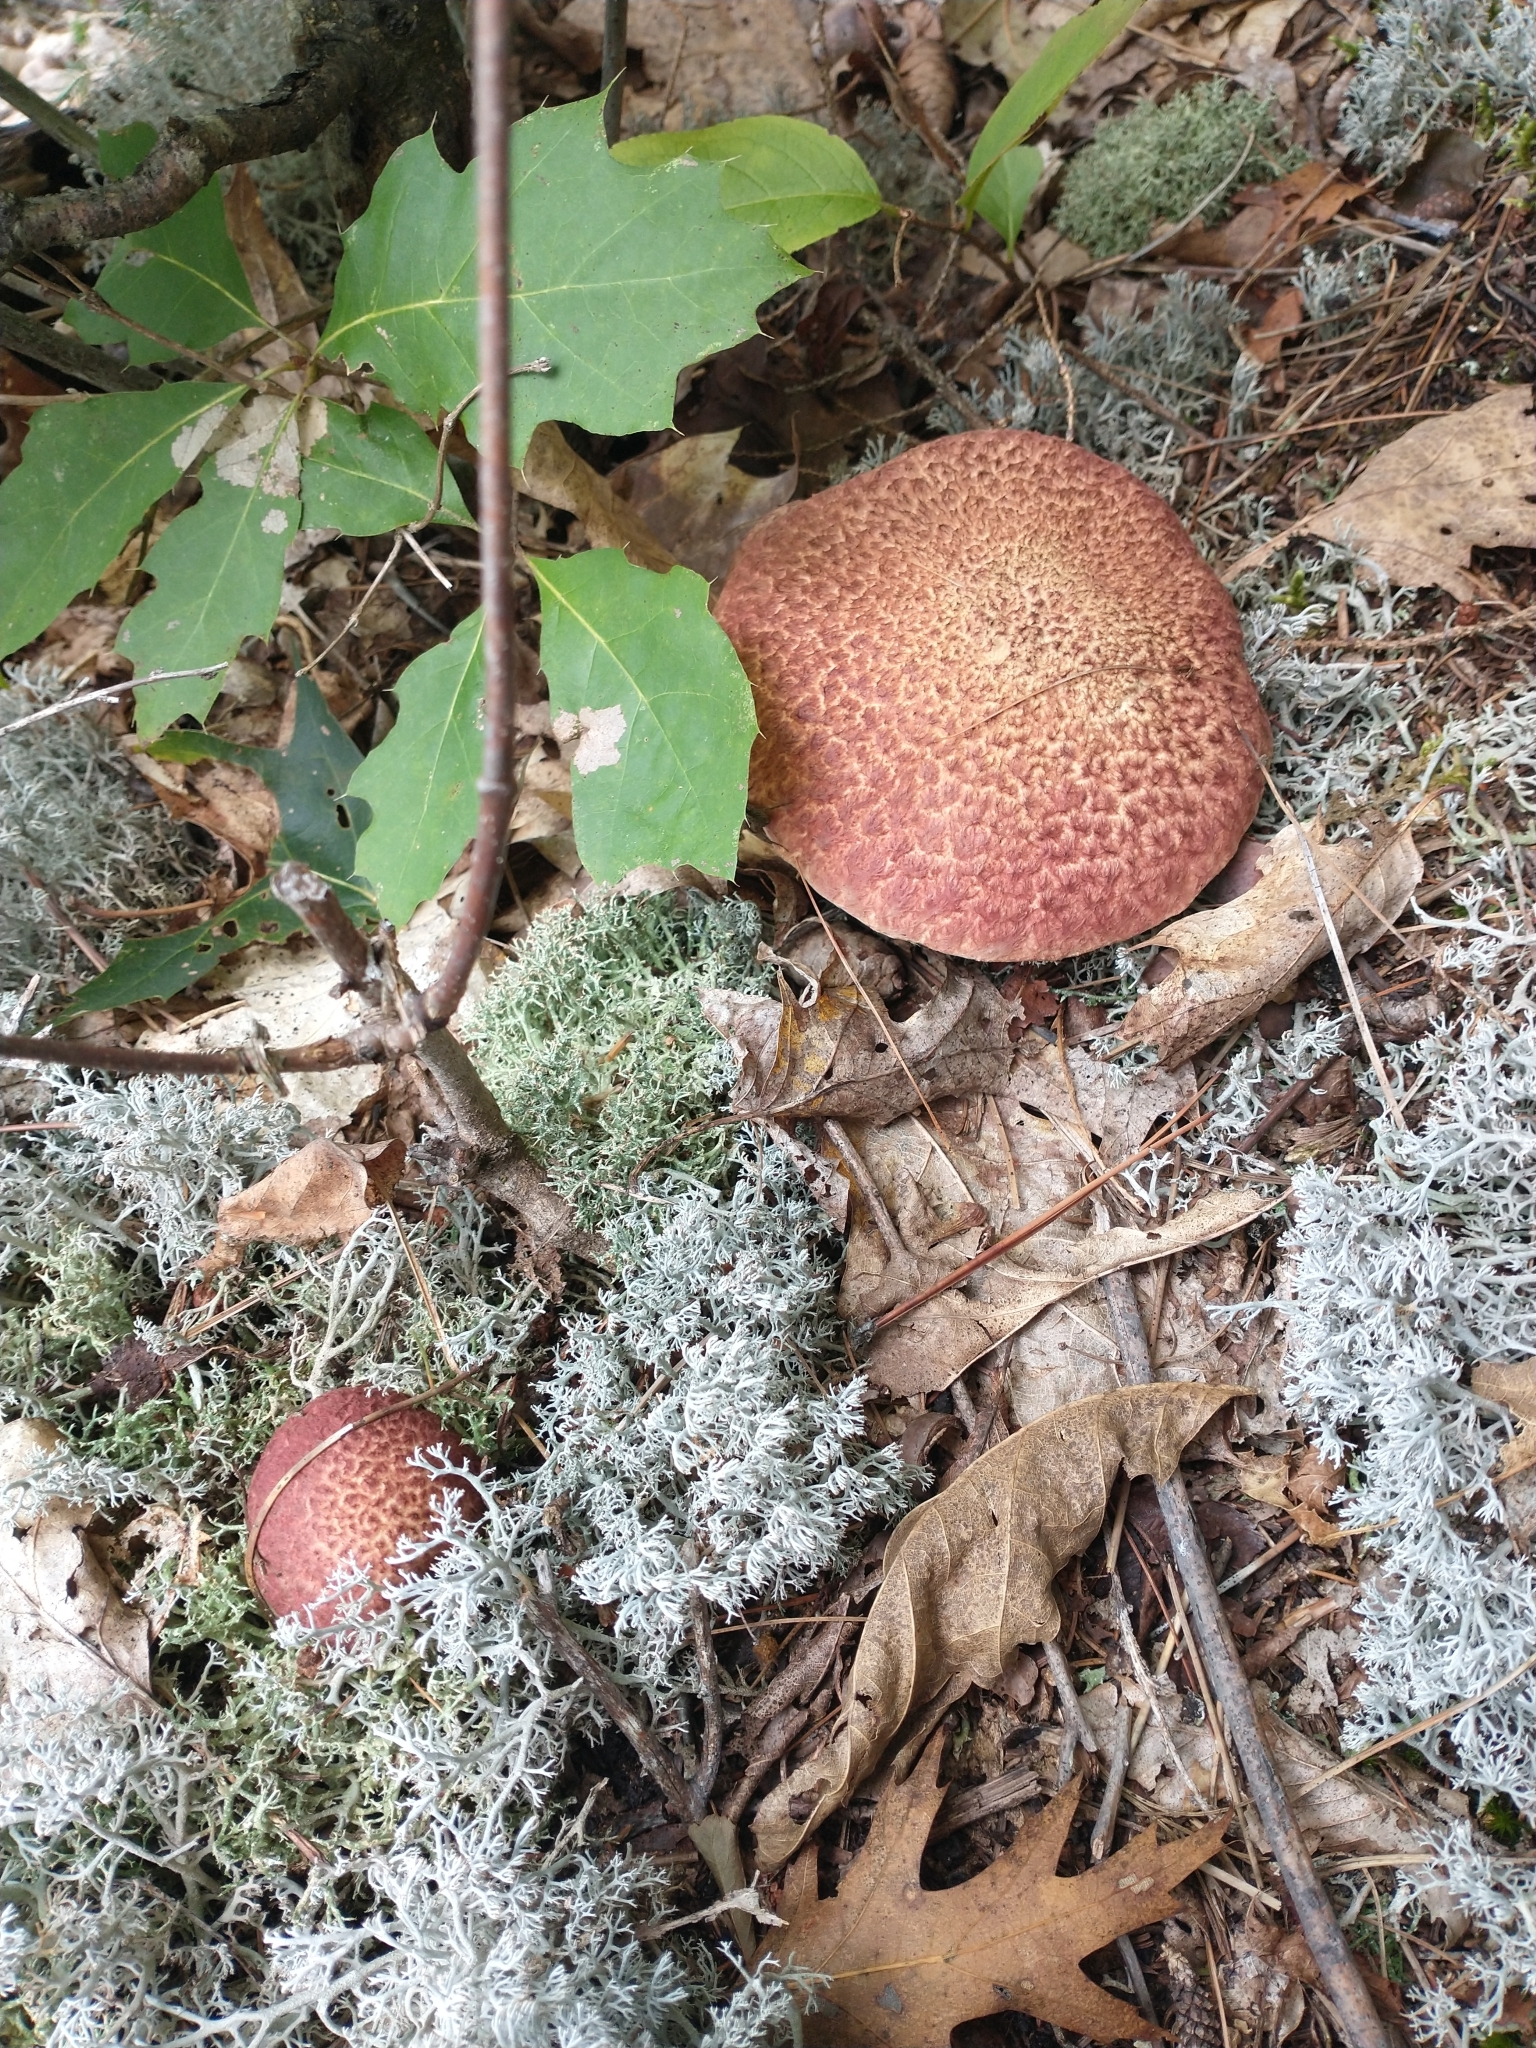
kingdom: Fungi
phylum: Basidiomycota
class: Agaricomycetes
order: Boletales
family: Suillaceae
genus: Suillus
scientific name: Suillus spraguei
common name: Painted suillus
